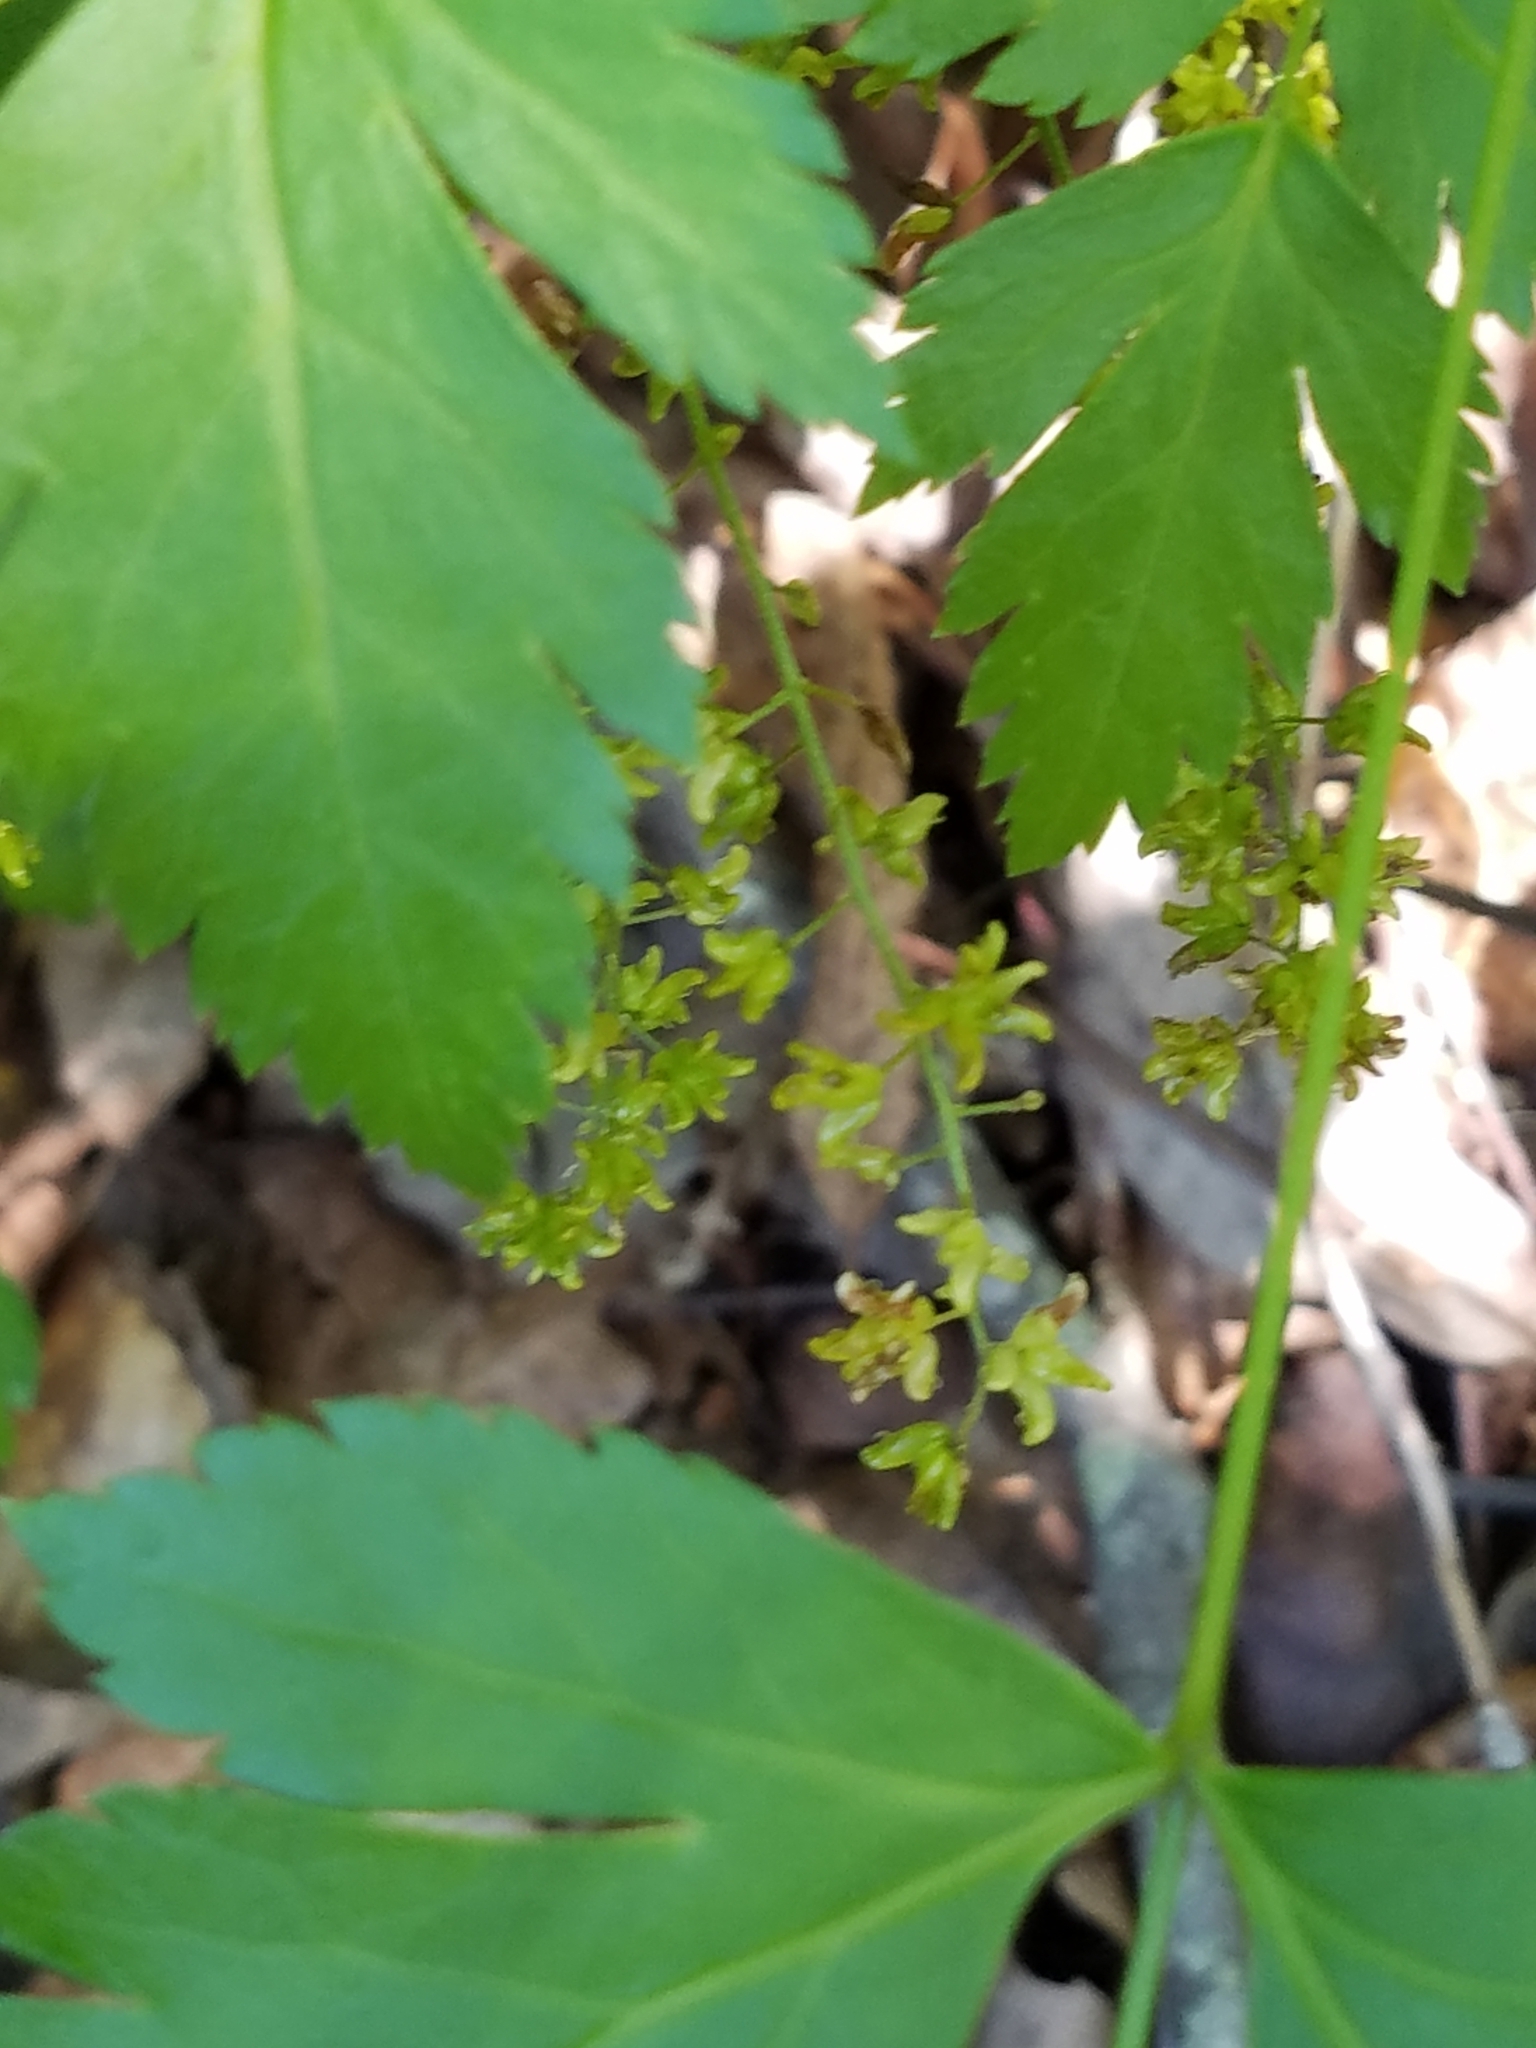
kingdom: Plantae
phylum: Tracheophyta
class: Magnoliopsida
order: Ranunculales
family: Ranunculaceae
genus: Xanthorhiza
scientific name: Xanthorhiza simplicissima
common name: Yellowroot
